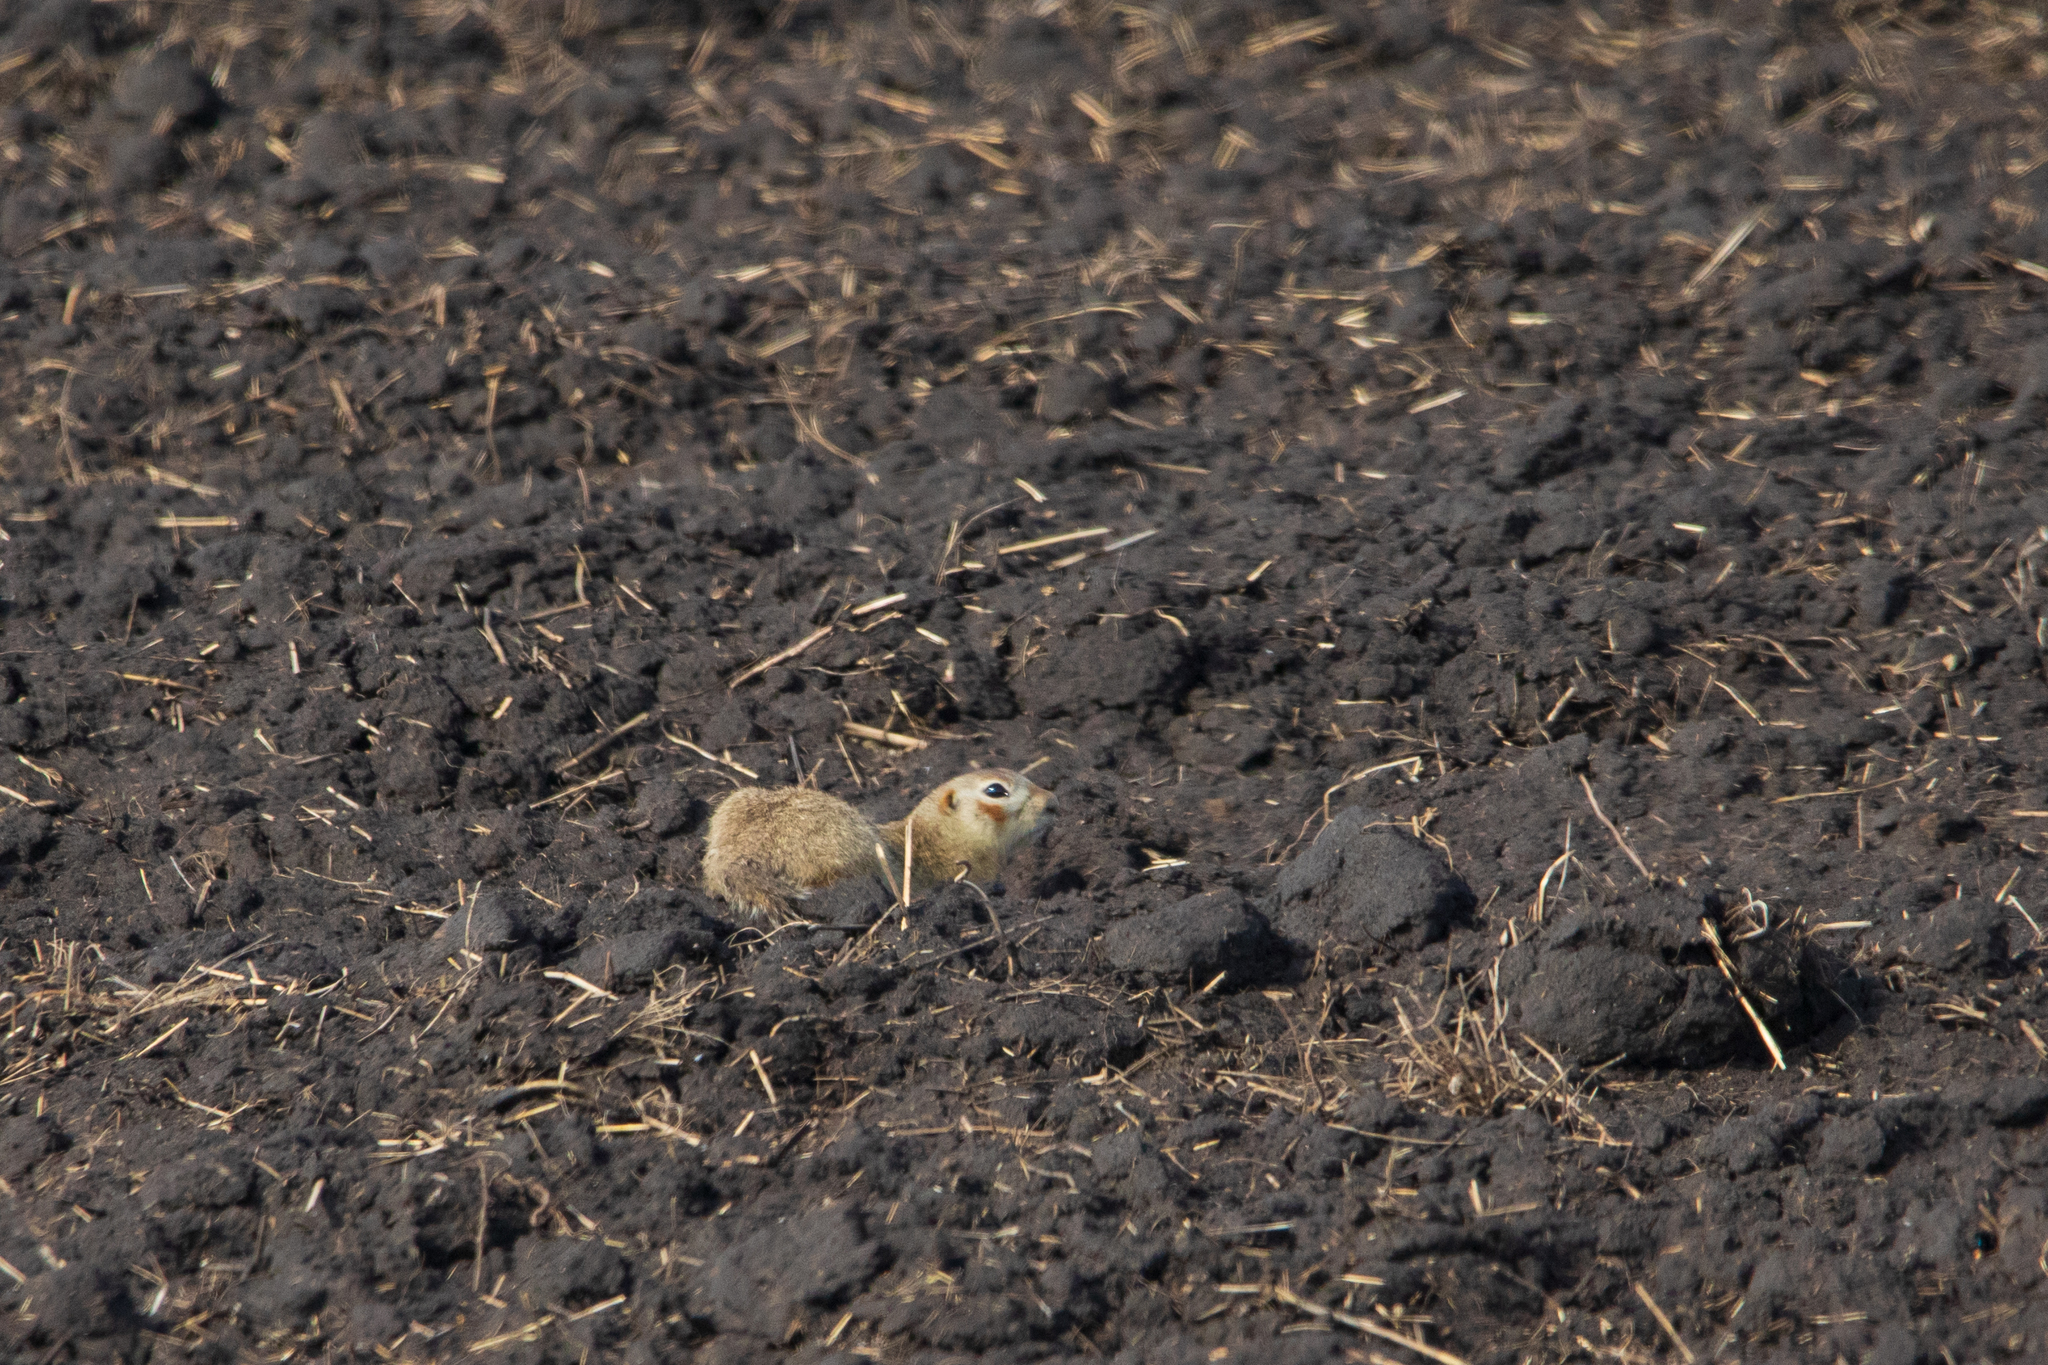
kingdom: Animalia
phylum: Chordata
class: Mammalia
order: Rodentia
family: Sciuridae
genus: Spermophilus
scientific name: Spermophilus erythrogenys
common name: Red-cheeked ground squirrel
